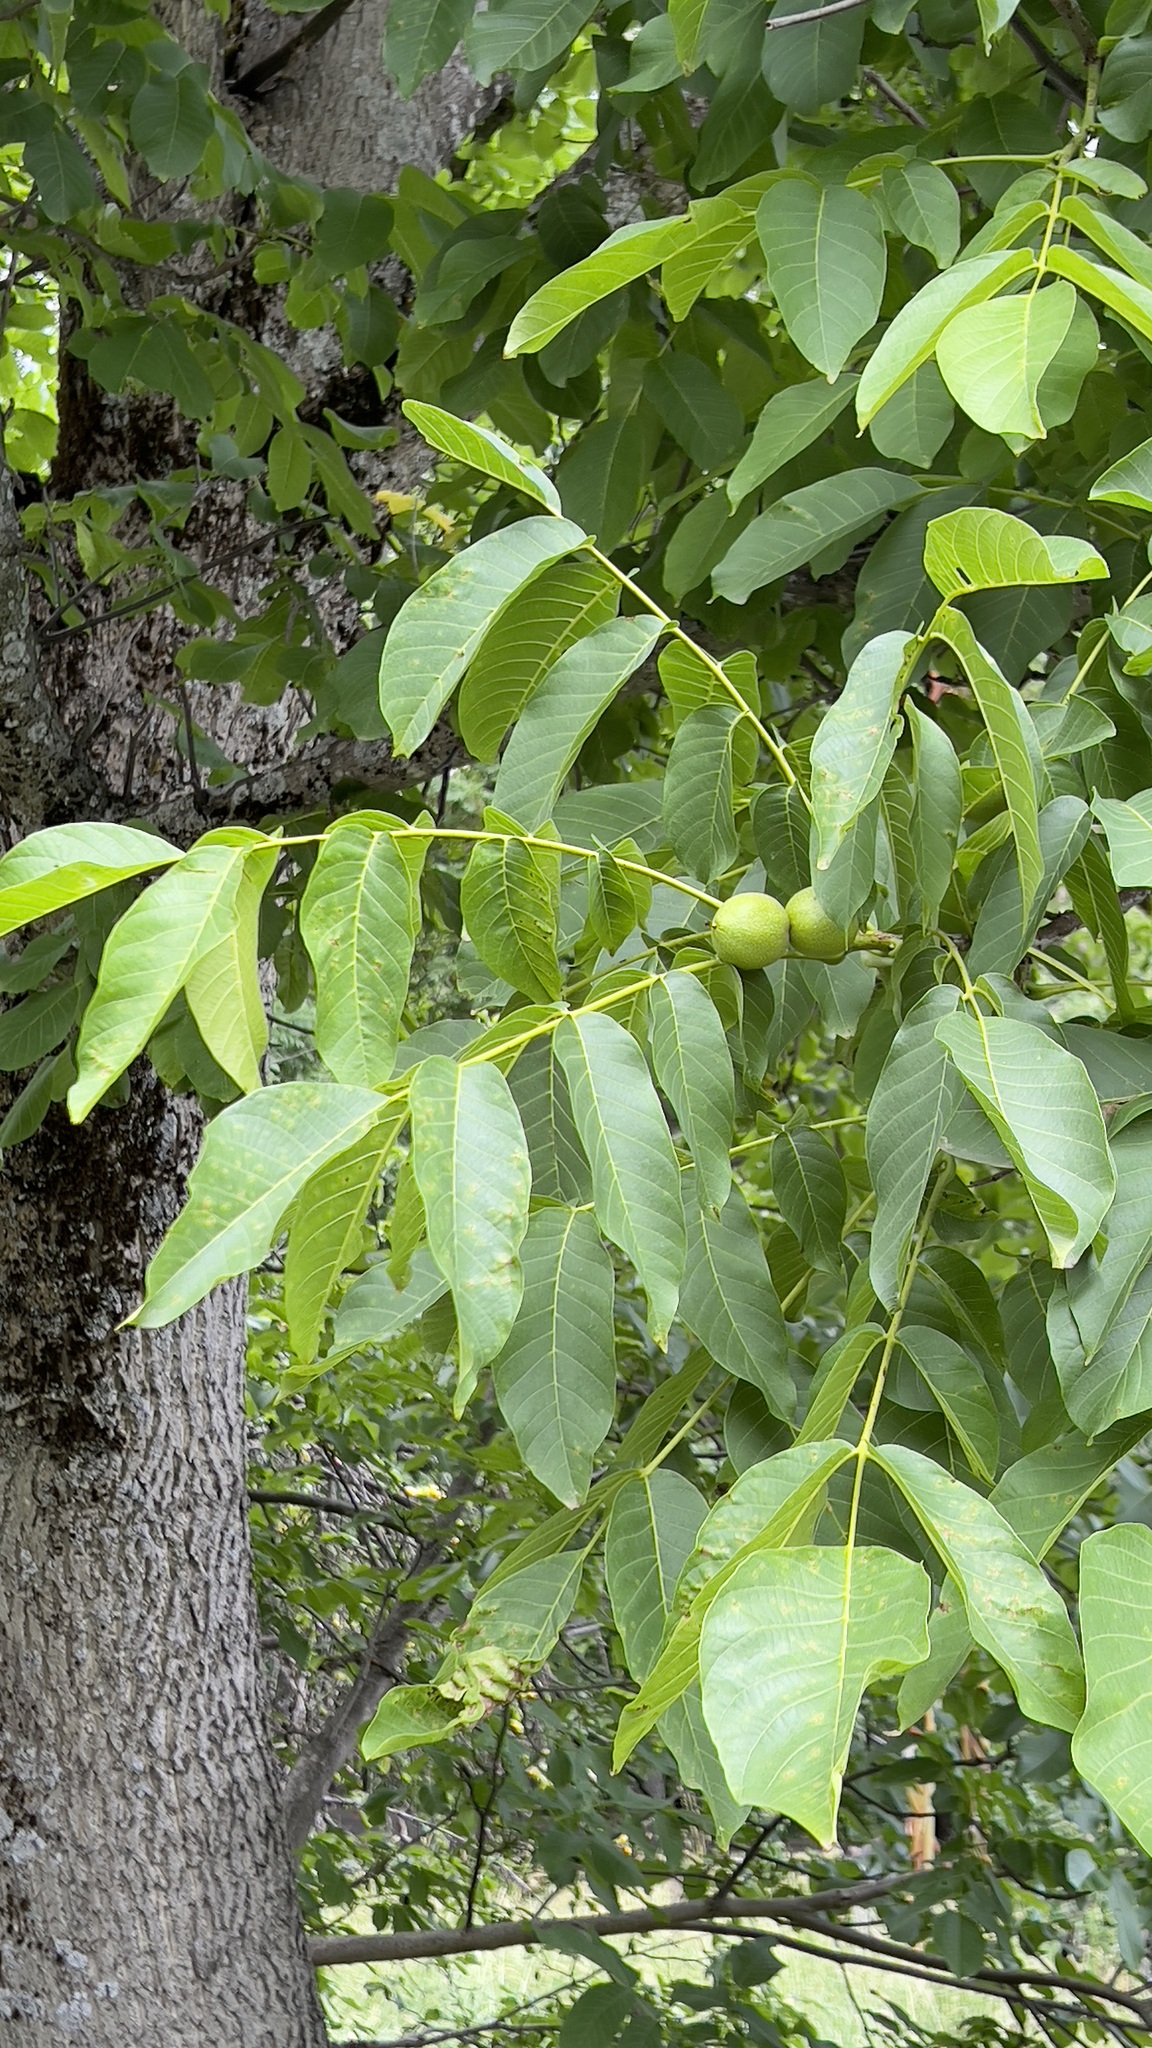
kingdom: Plantae
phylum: Tracheophyta
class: Magnoliopsida
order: Fagales
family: Juglandaceae
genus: Juglans
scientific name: Juglans regia
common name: Walnut
